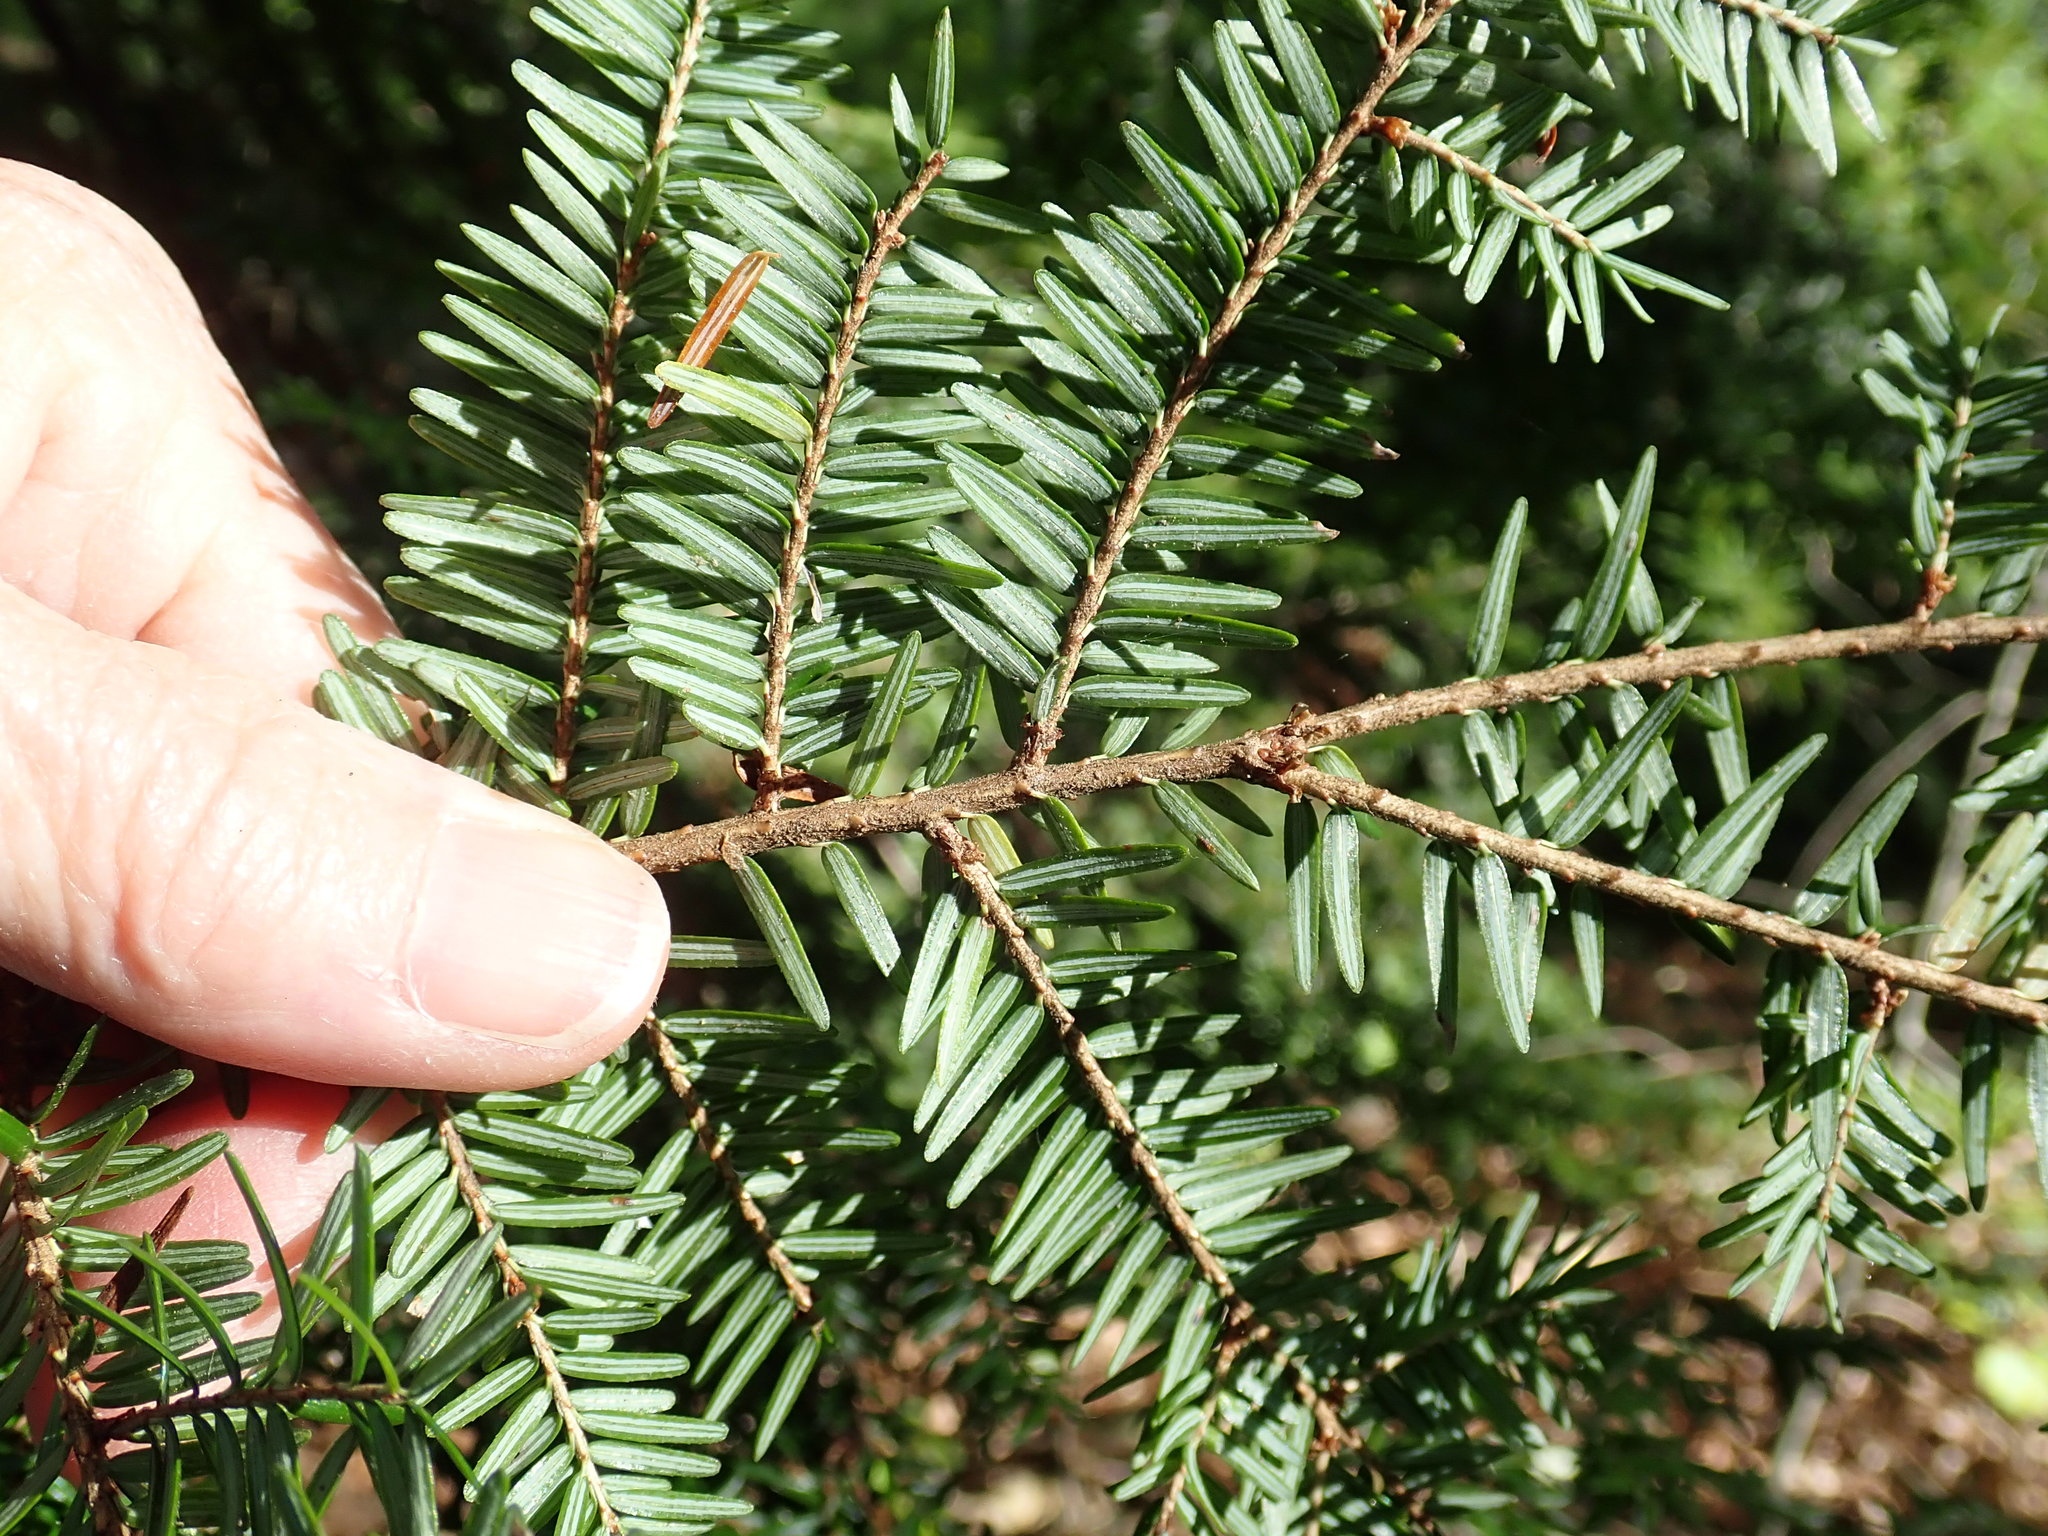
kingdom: Plantae
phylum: Tracheophyta
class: Pinopsida
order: Pinales
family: Pinaceae
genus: Tsuga
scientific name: Tsuga canadensis
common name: Eastern hemlock
